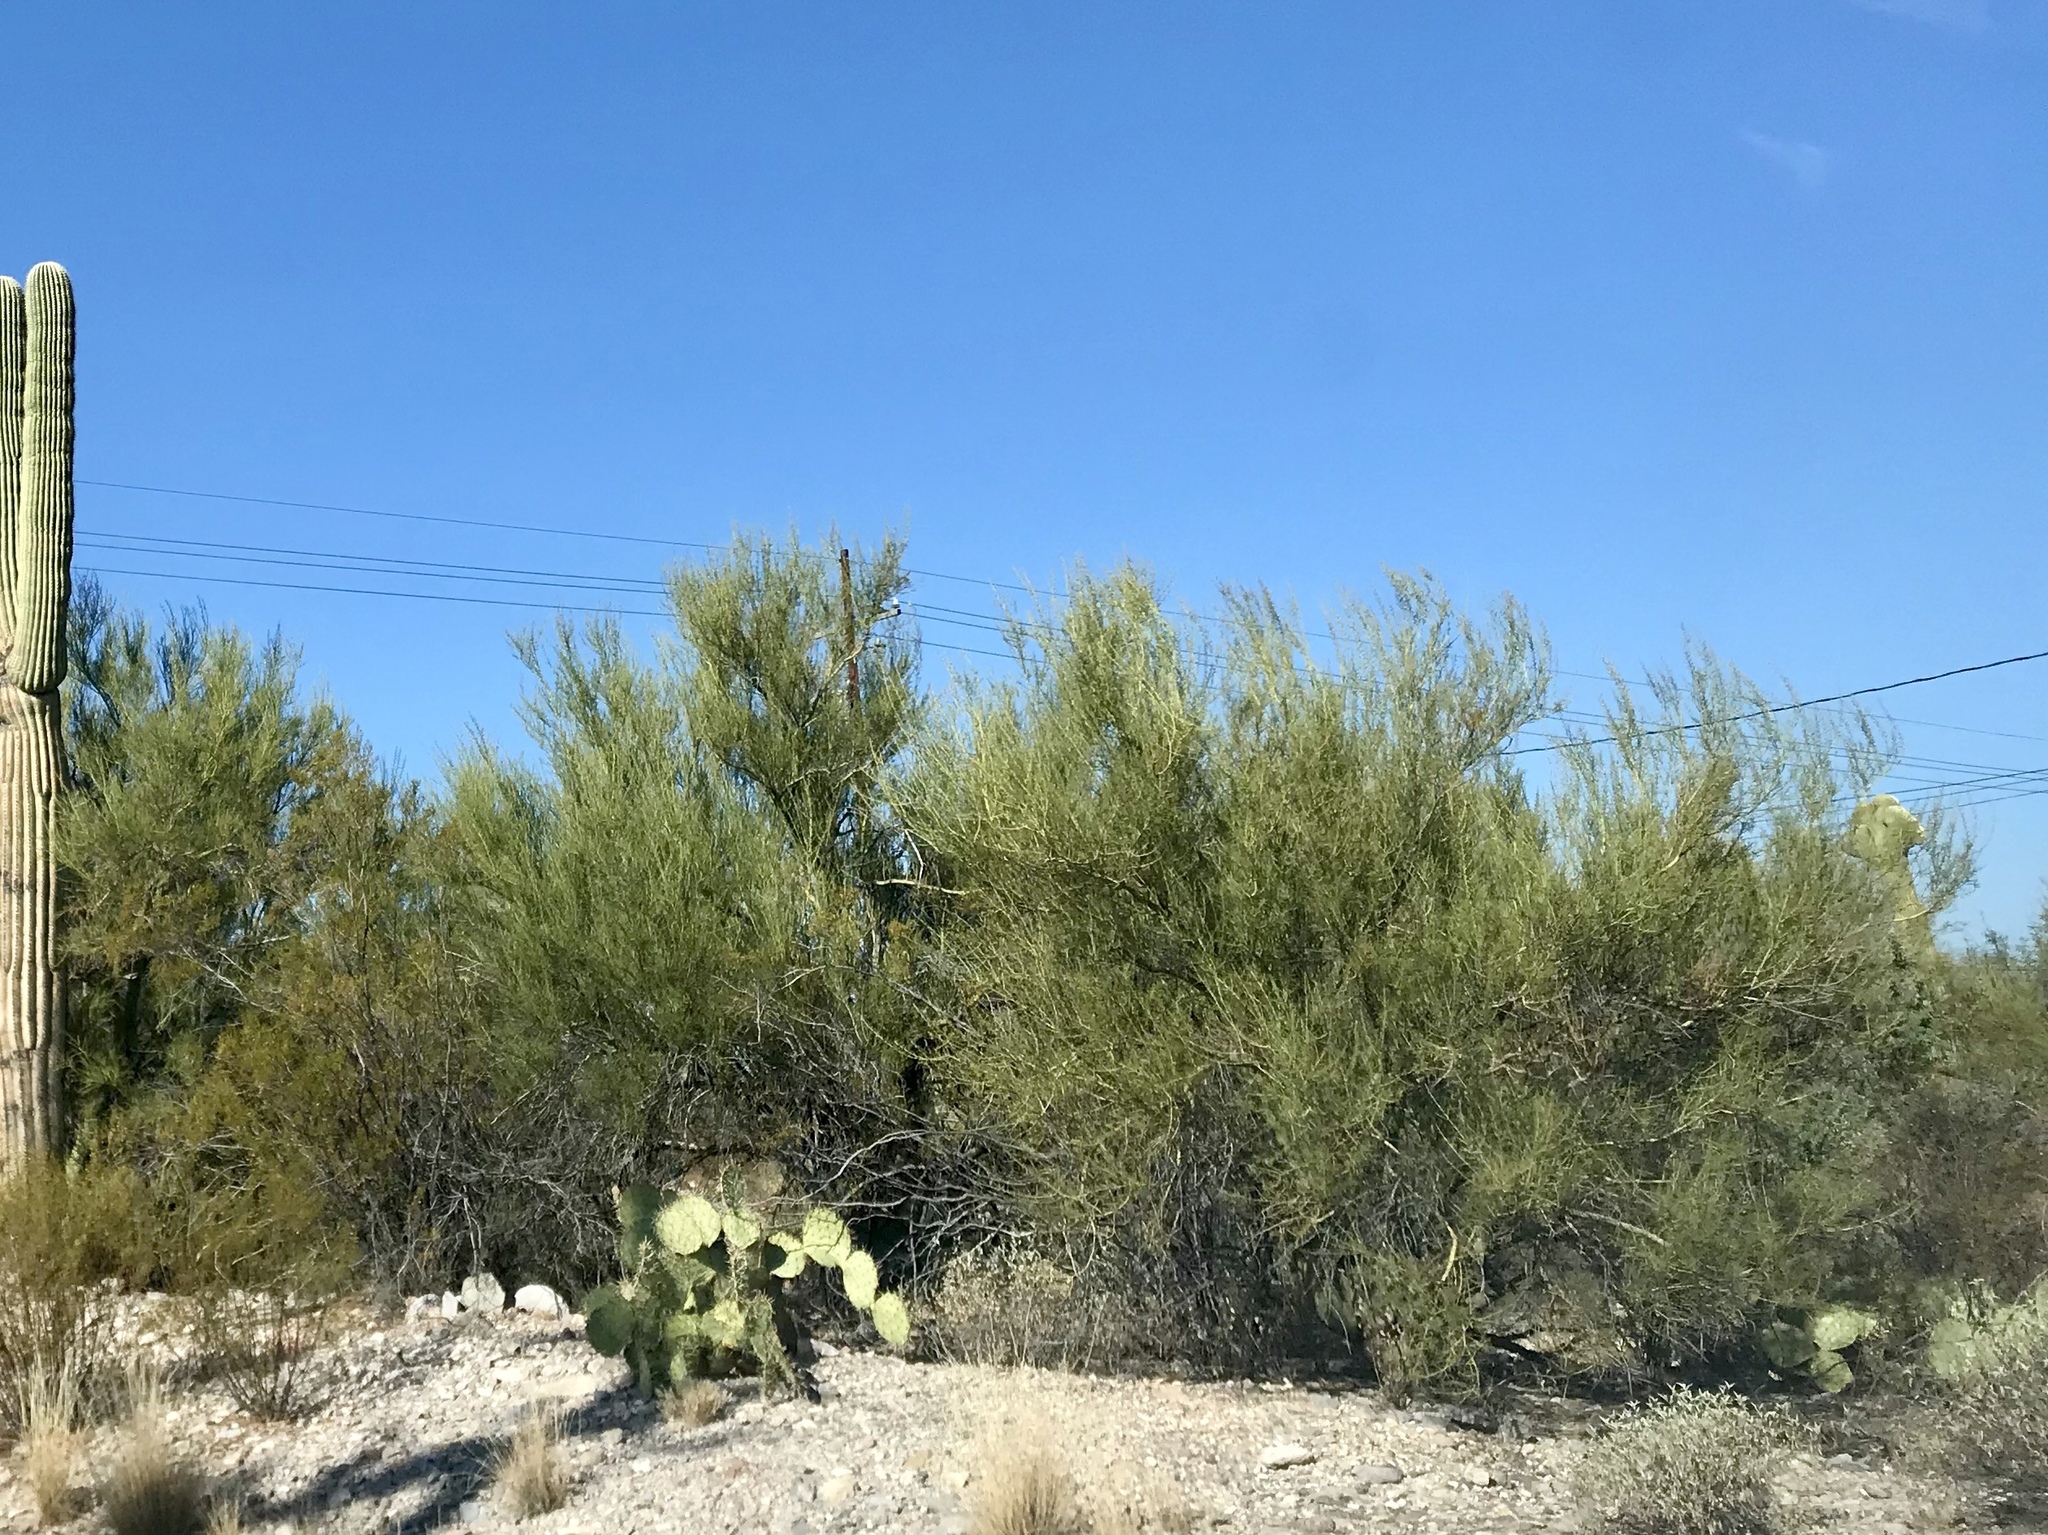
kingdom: Plantae
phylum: Tracheophyta
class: Magnoliopsida
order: Fabales
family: Fabaceae
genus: Parkinsonia
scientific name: Parkinsonia microphylla
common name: Yellow paloverde
